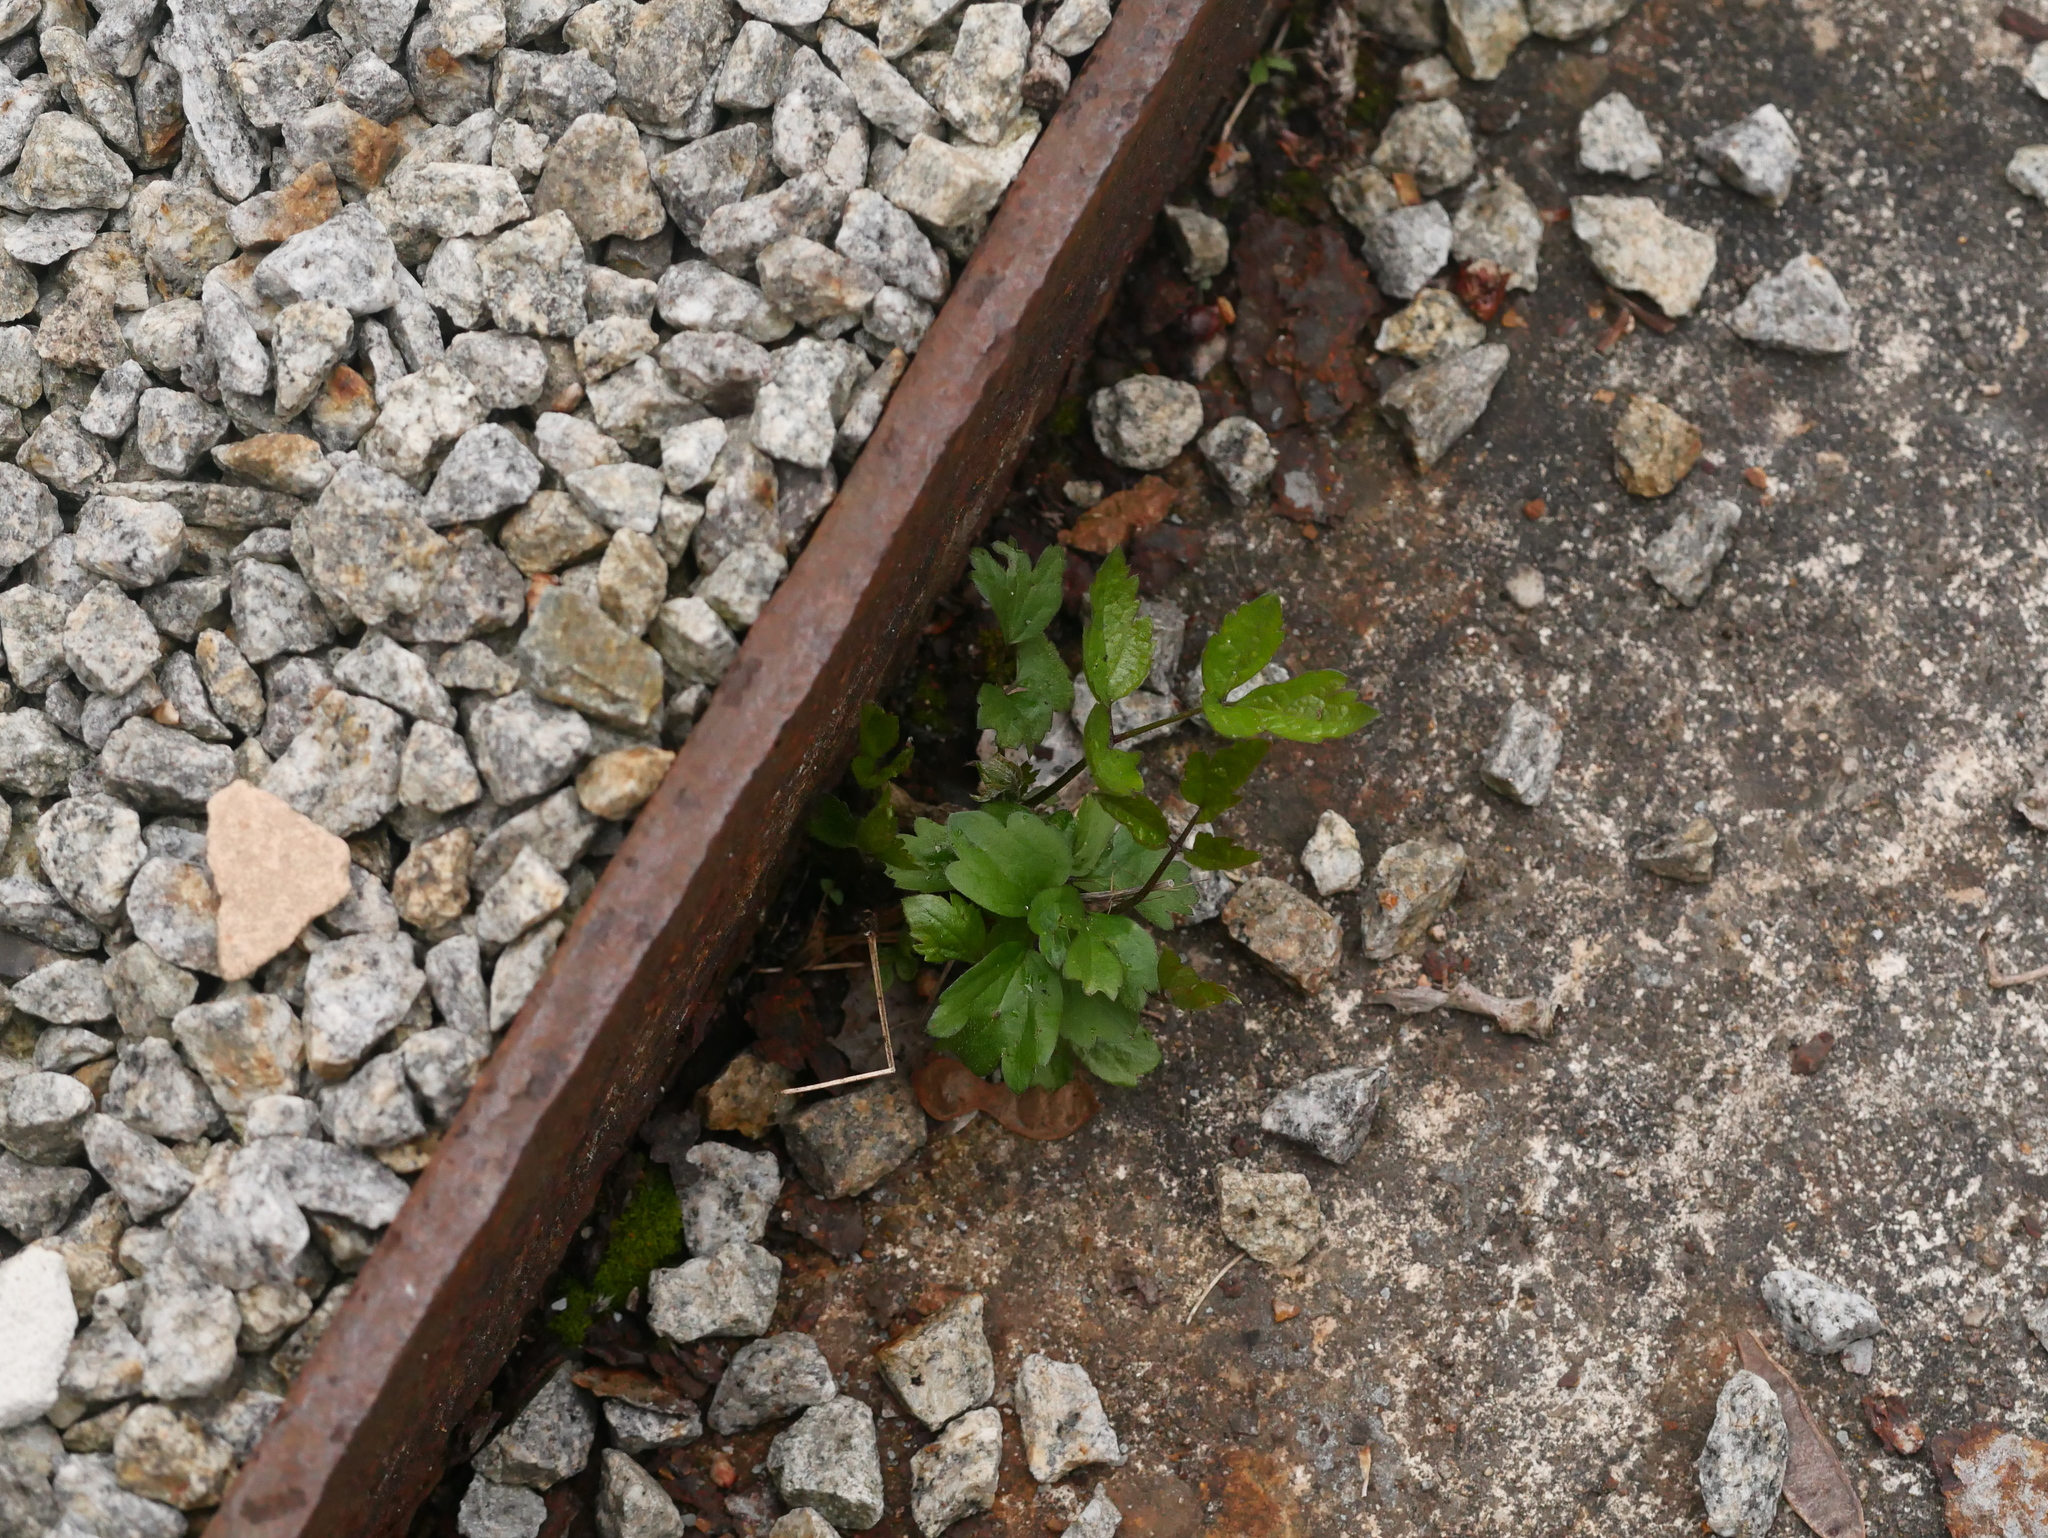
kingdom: Plantae
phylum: Tracheophyta
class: Magnoliopsida
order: Ranunculales
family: Ranunculaceae
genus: Clematis
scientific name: Clematis vitalba
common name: Evergreen clematis
